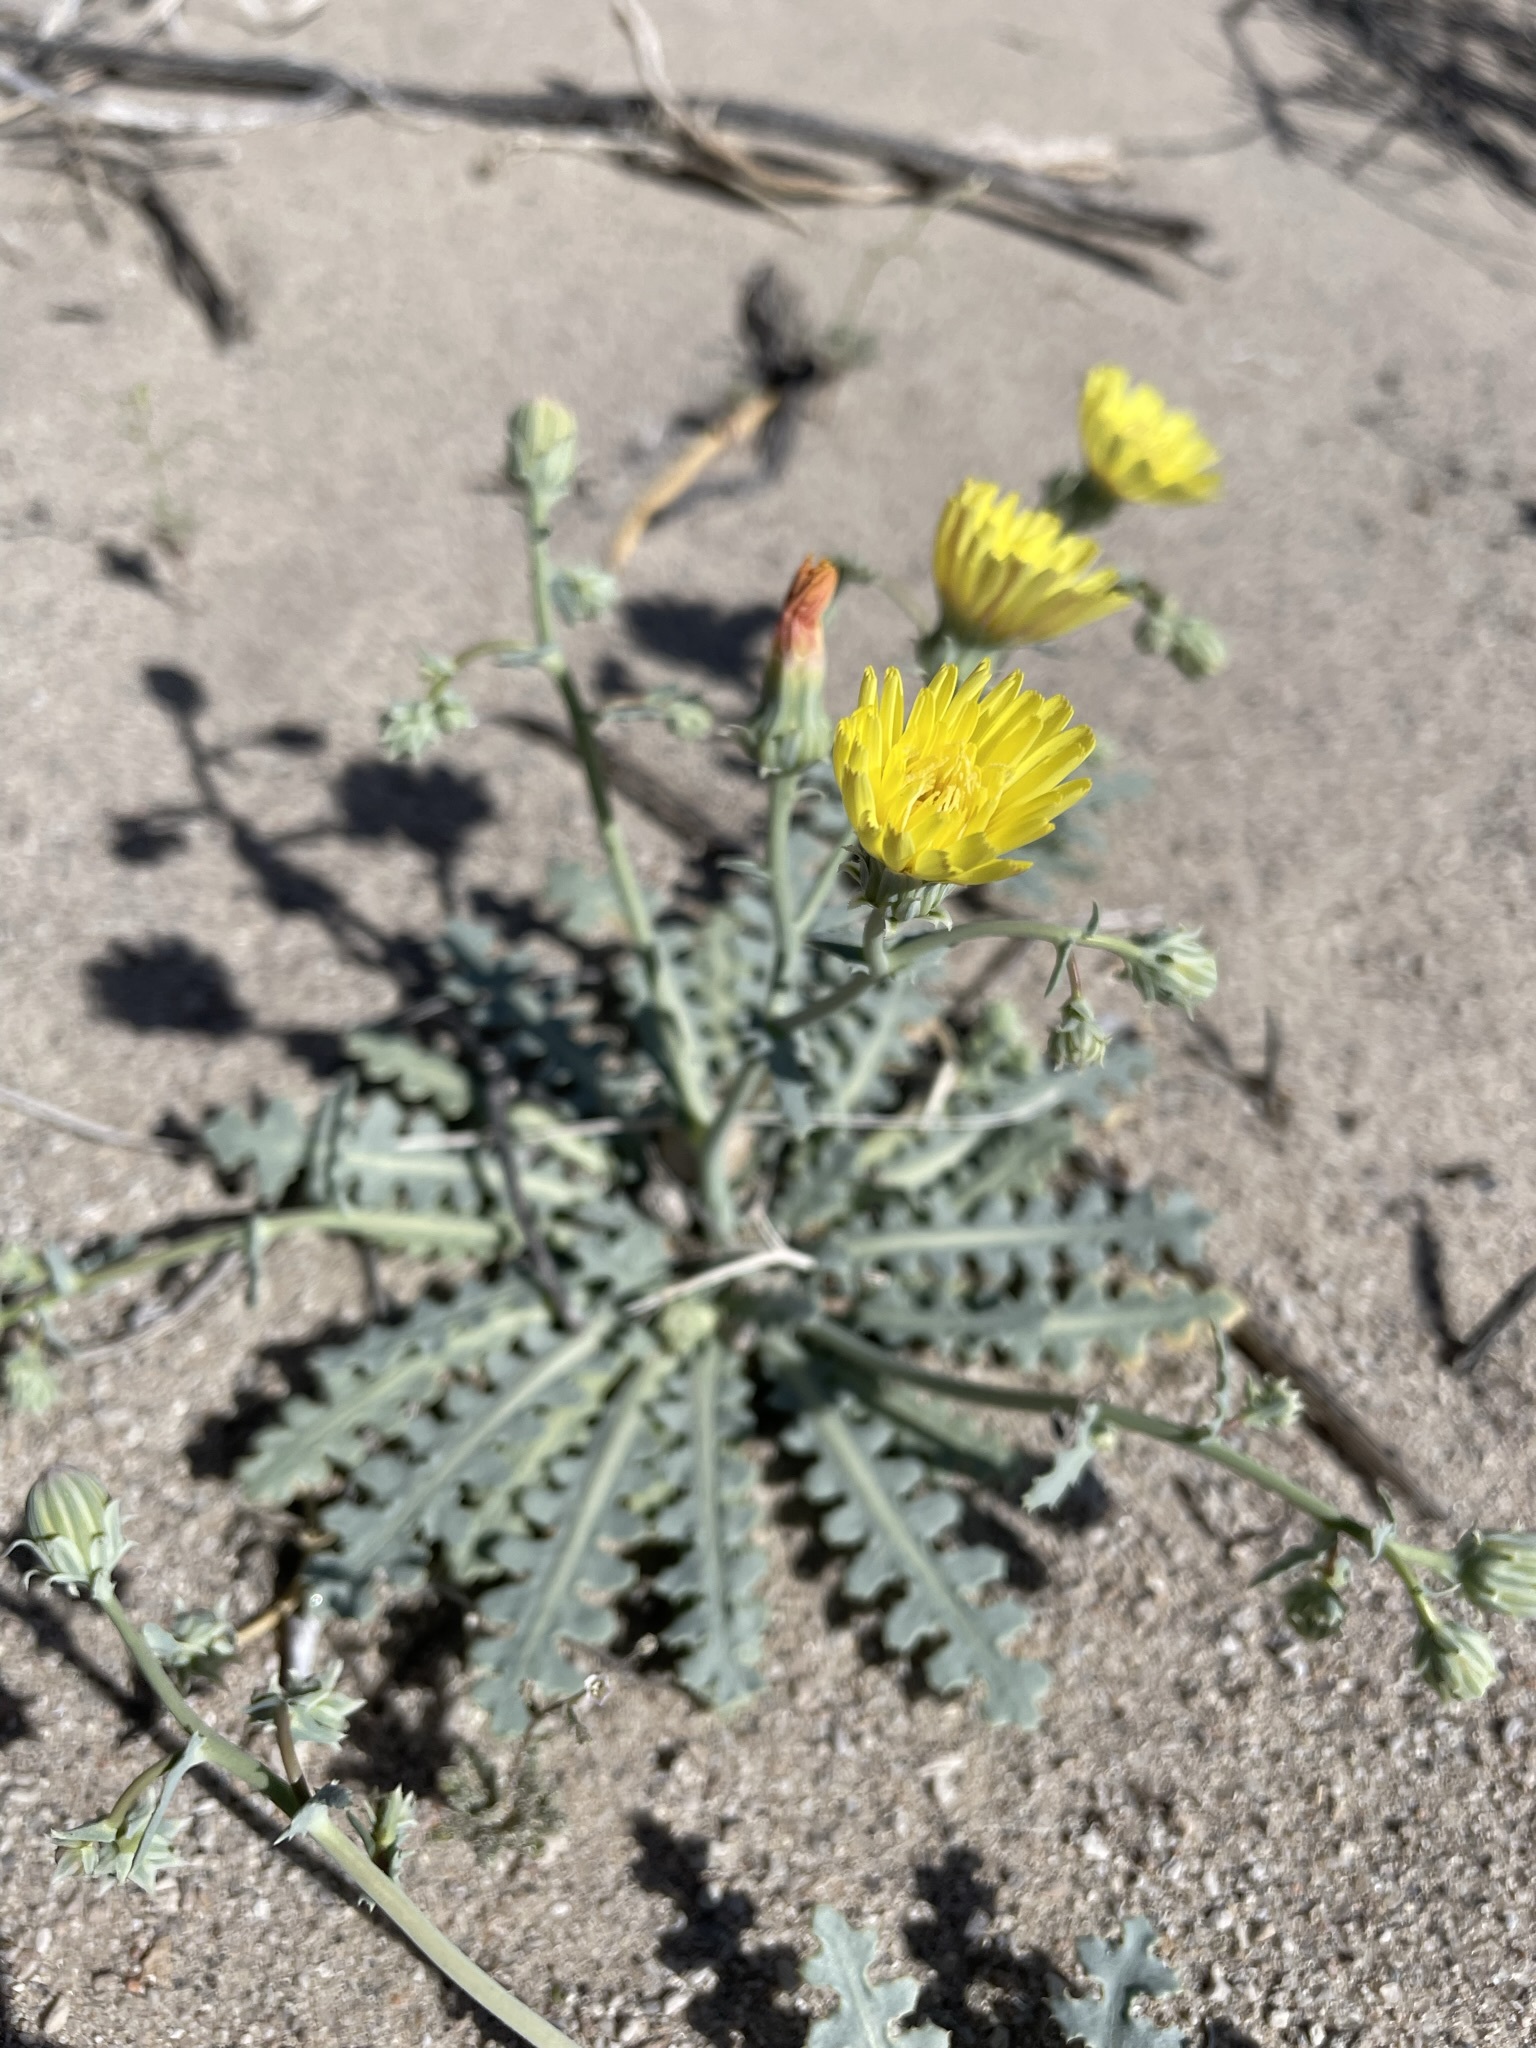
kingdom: Plantae
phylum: Tracheophyta
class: Magnoliopsida
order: Asterales
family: Asteraceae
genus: Malacothrix
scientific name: Malacothrix sonchoides
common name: Sow-thistle desert-dandelion
